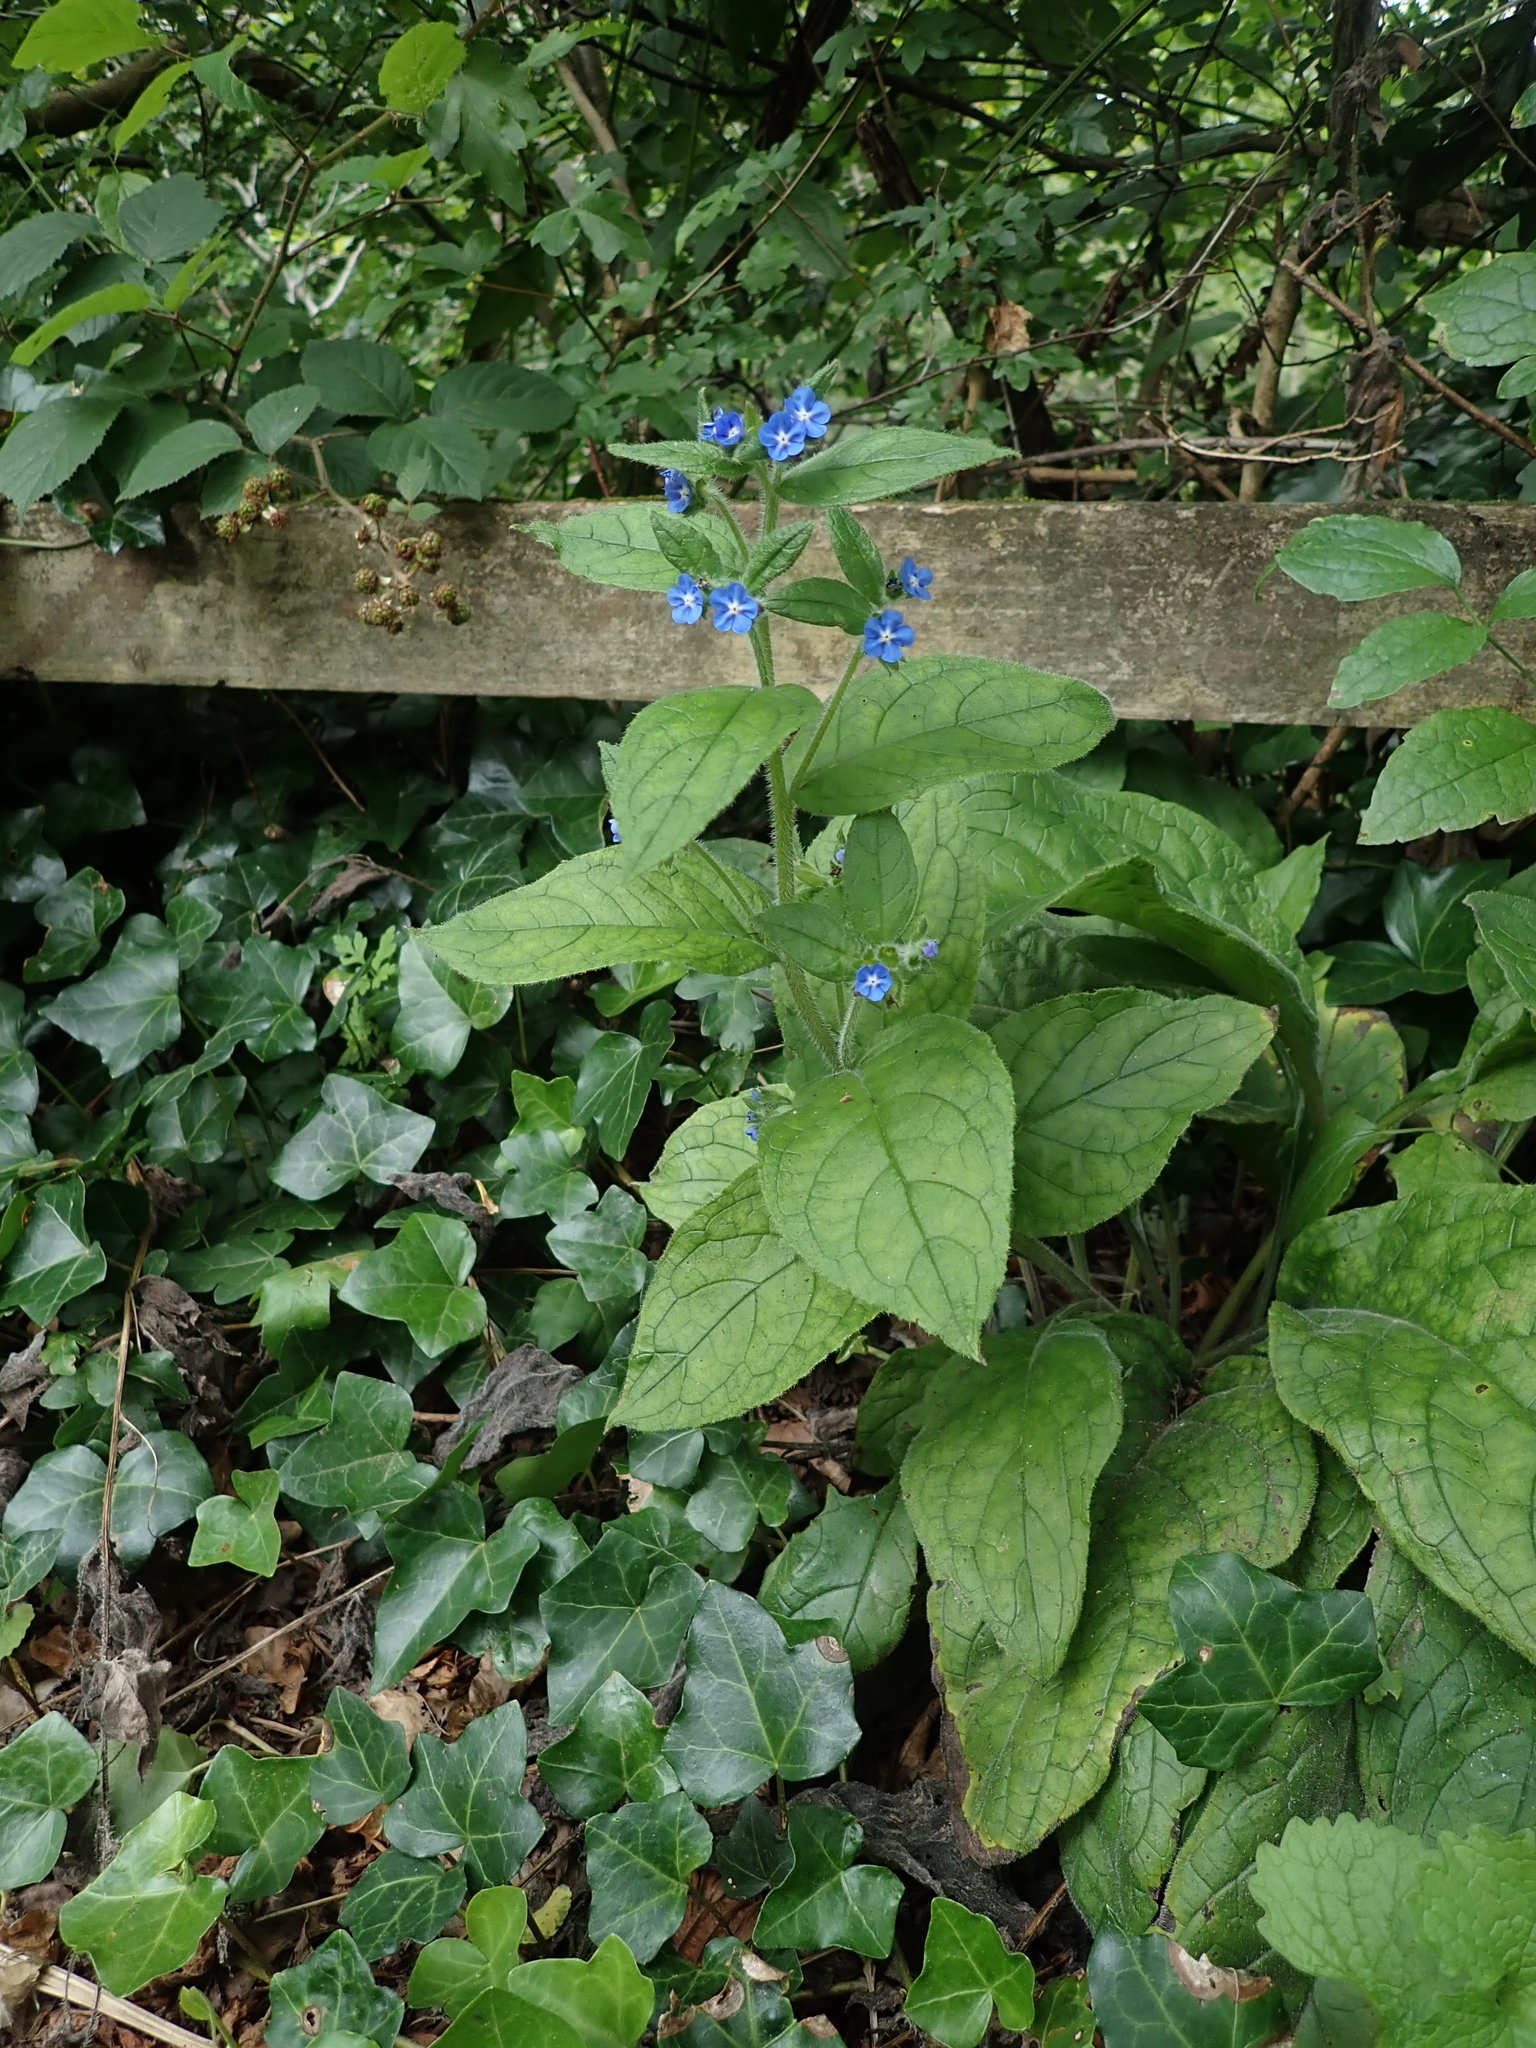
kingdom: Plantae
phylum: Tracheophyta
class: Magnoliopsida
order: Boraginales
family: Boraginaceae
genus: Pentaglottis
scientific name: Pentaglottis sempervirens
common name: Green alkanet
